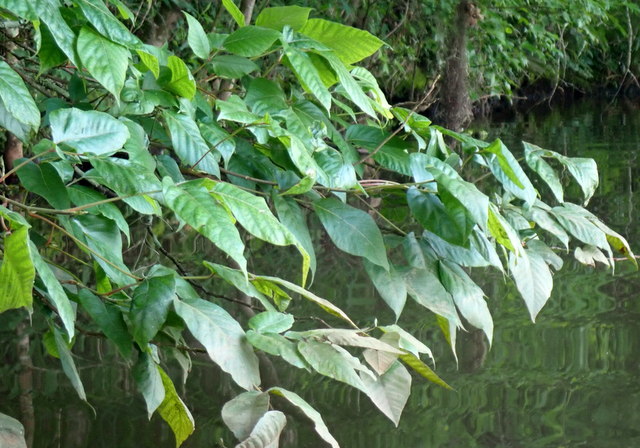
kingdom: Plantae
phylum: Tracheophyta
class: Magnoliopsida
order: Sapindales
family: Anacardiaceae
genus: Toxicodendron
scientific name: Toxicodendron radicans
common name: Poison ivy
